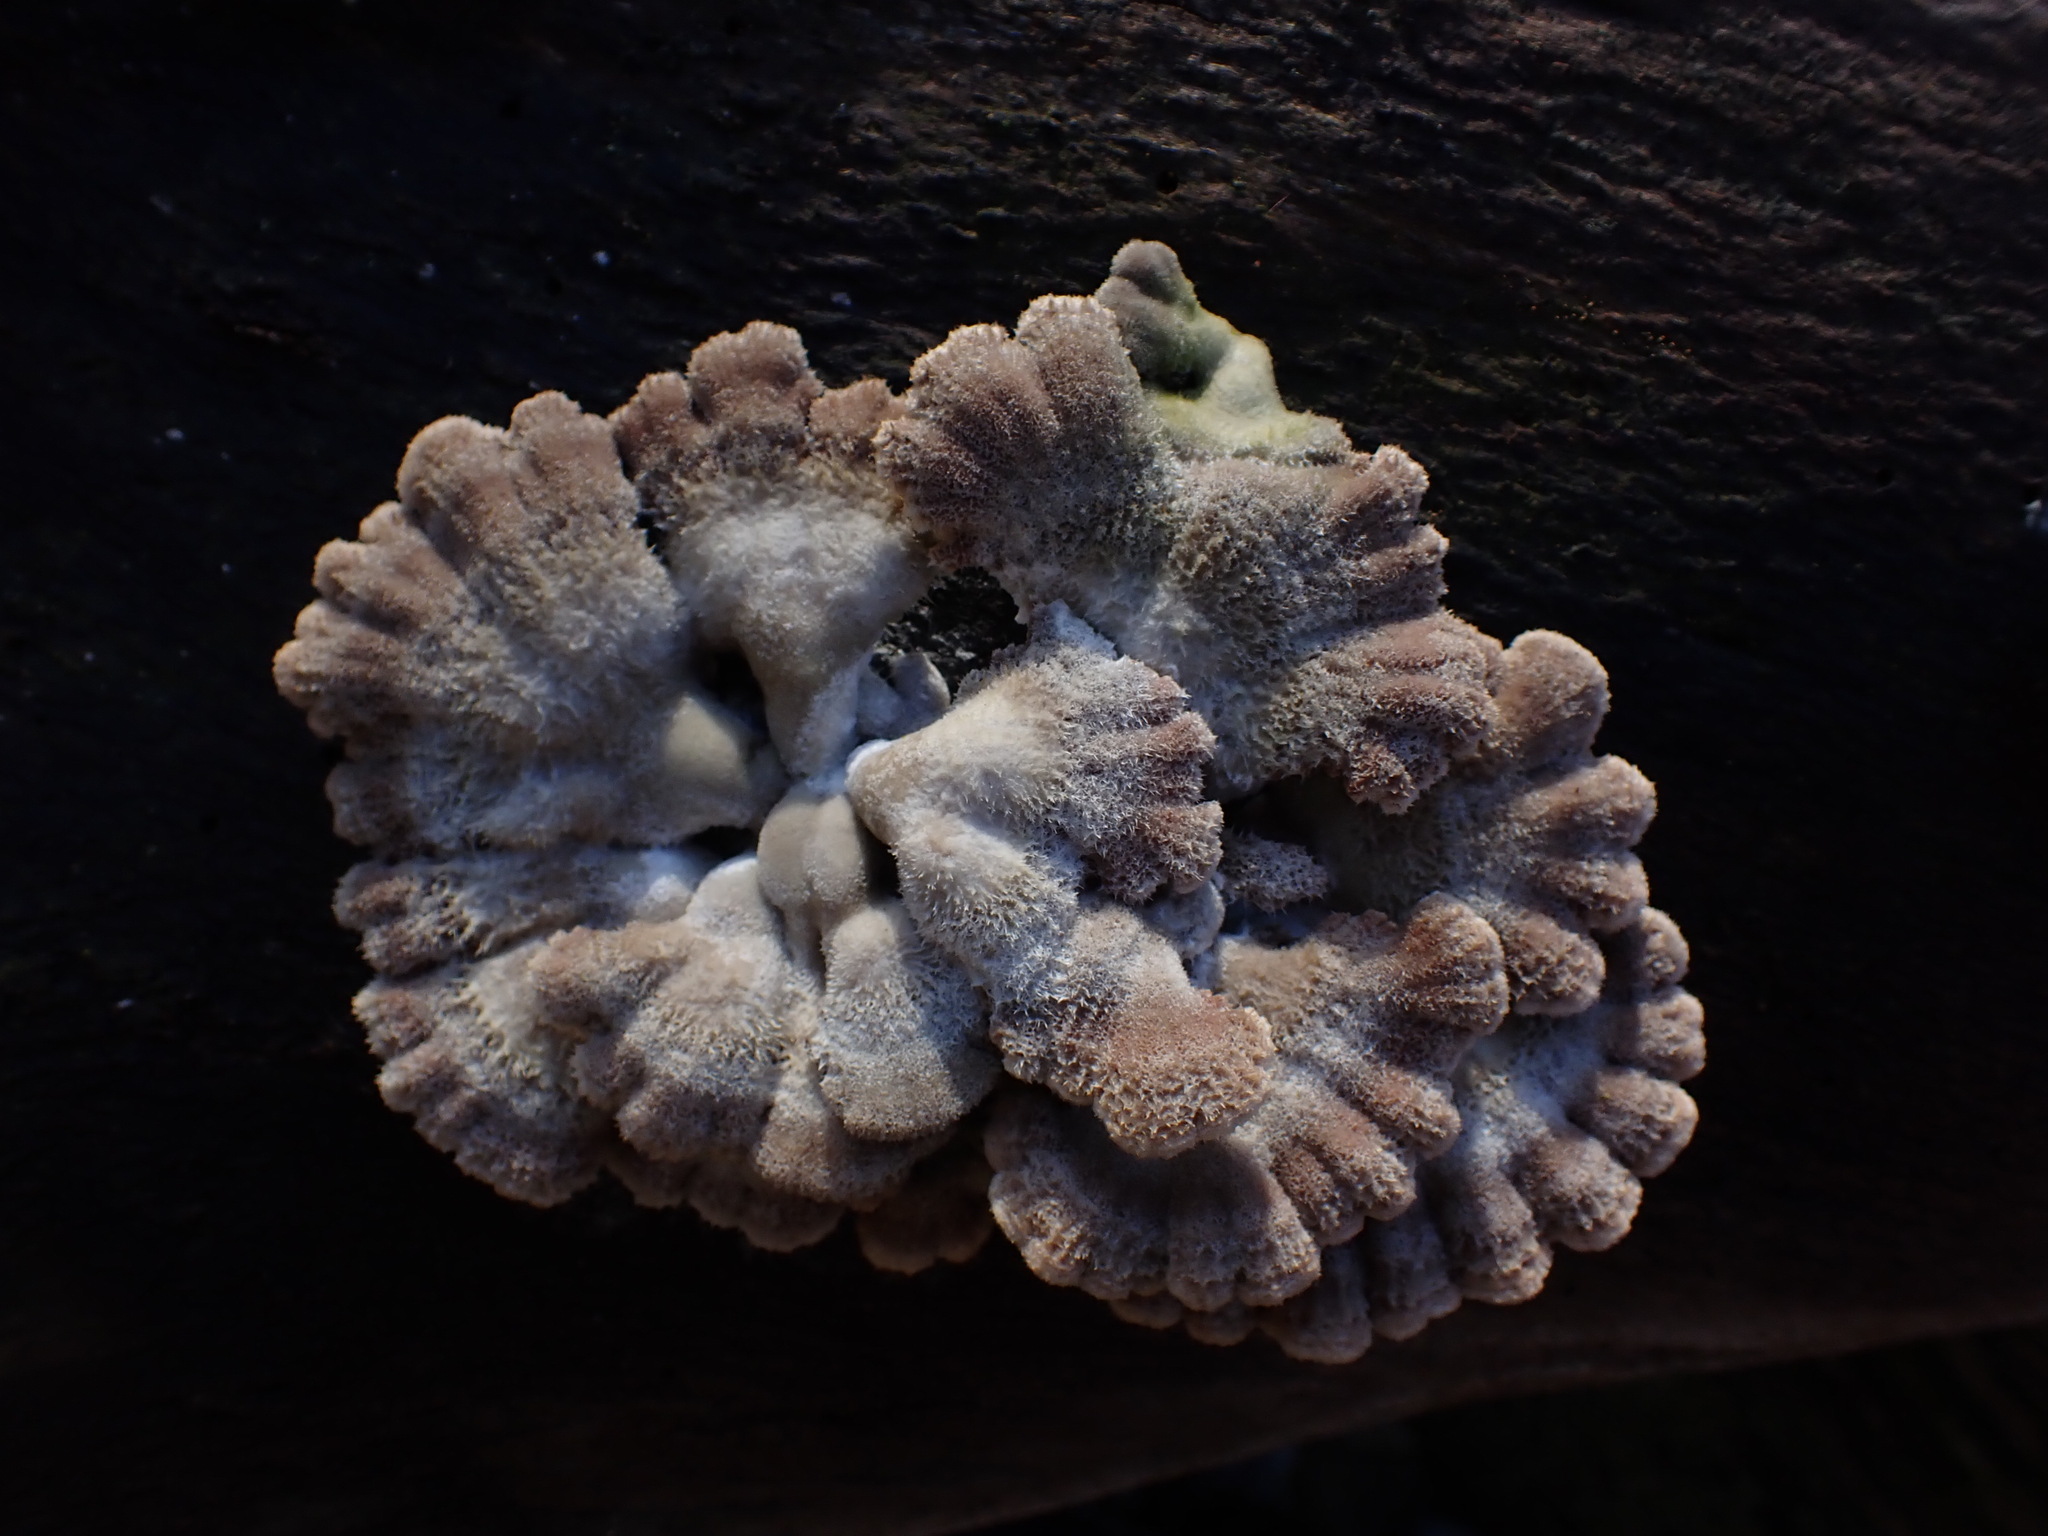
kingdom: Fungi
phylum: Basidiomycota
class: Agaricomycetes
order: Agaricales
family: Schizophyllaceae
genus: Schizophyllum
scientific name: Schizophyllum commune
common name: Common porecrust
